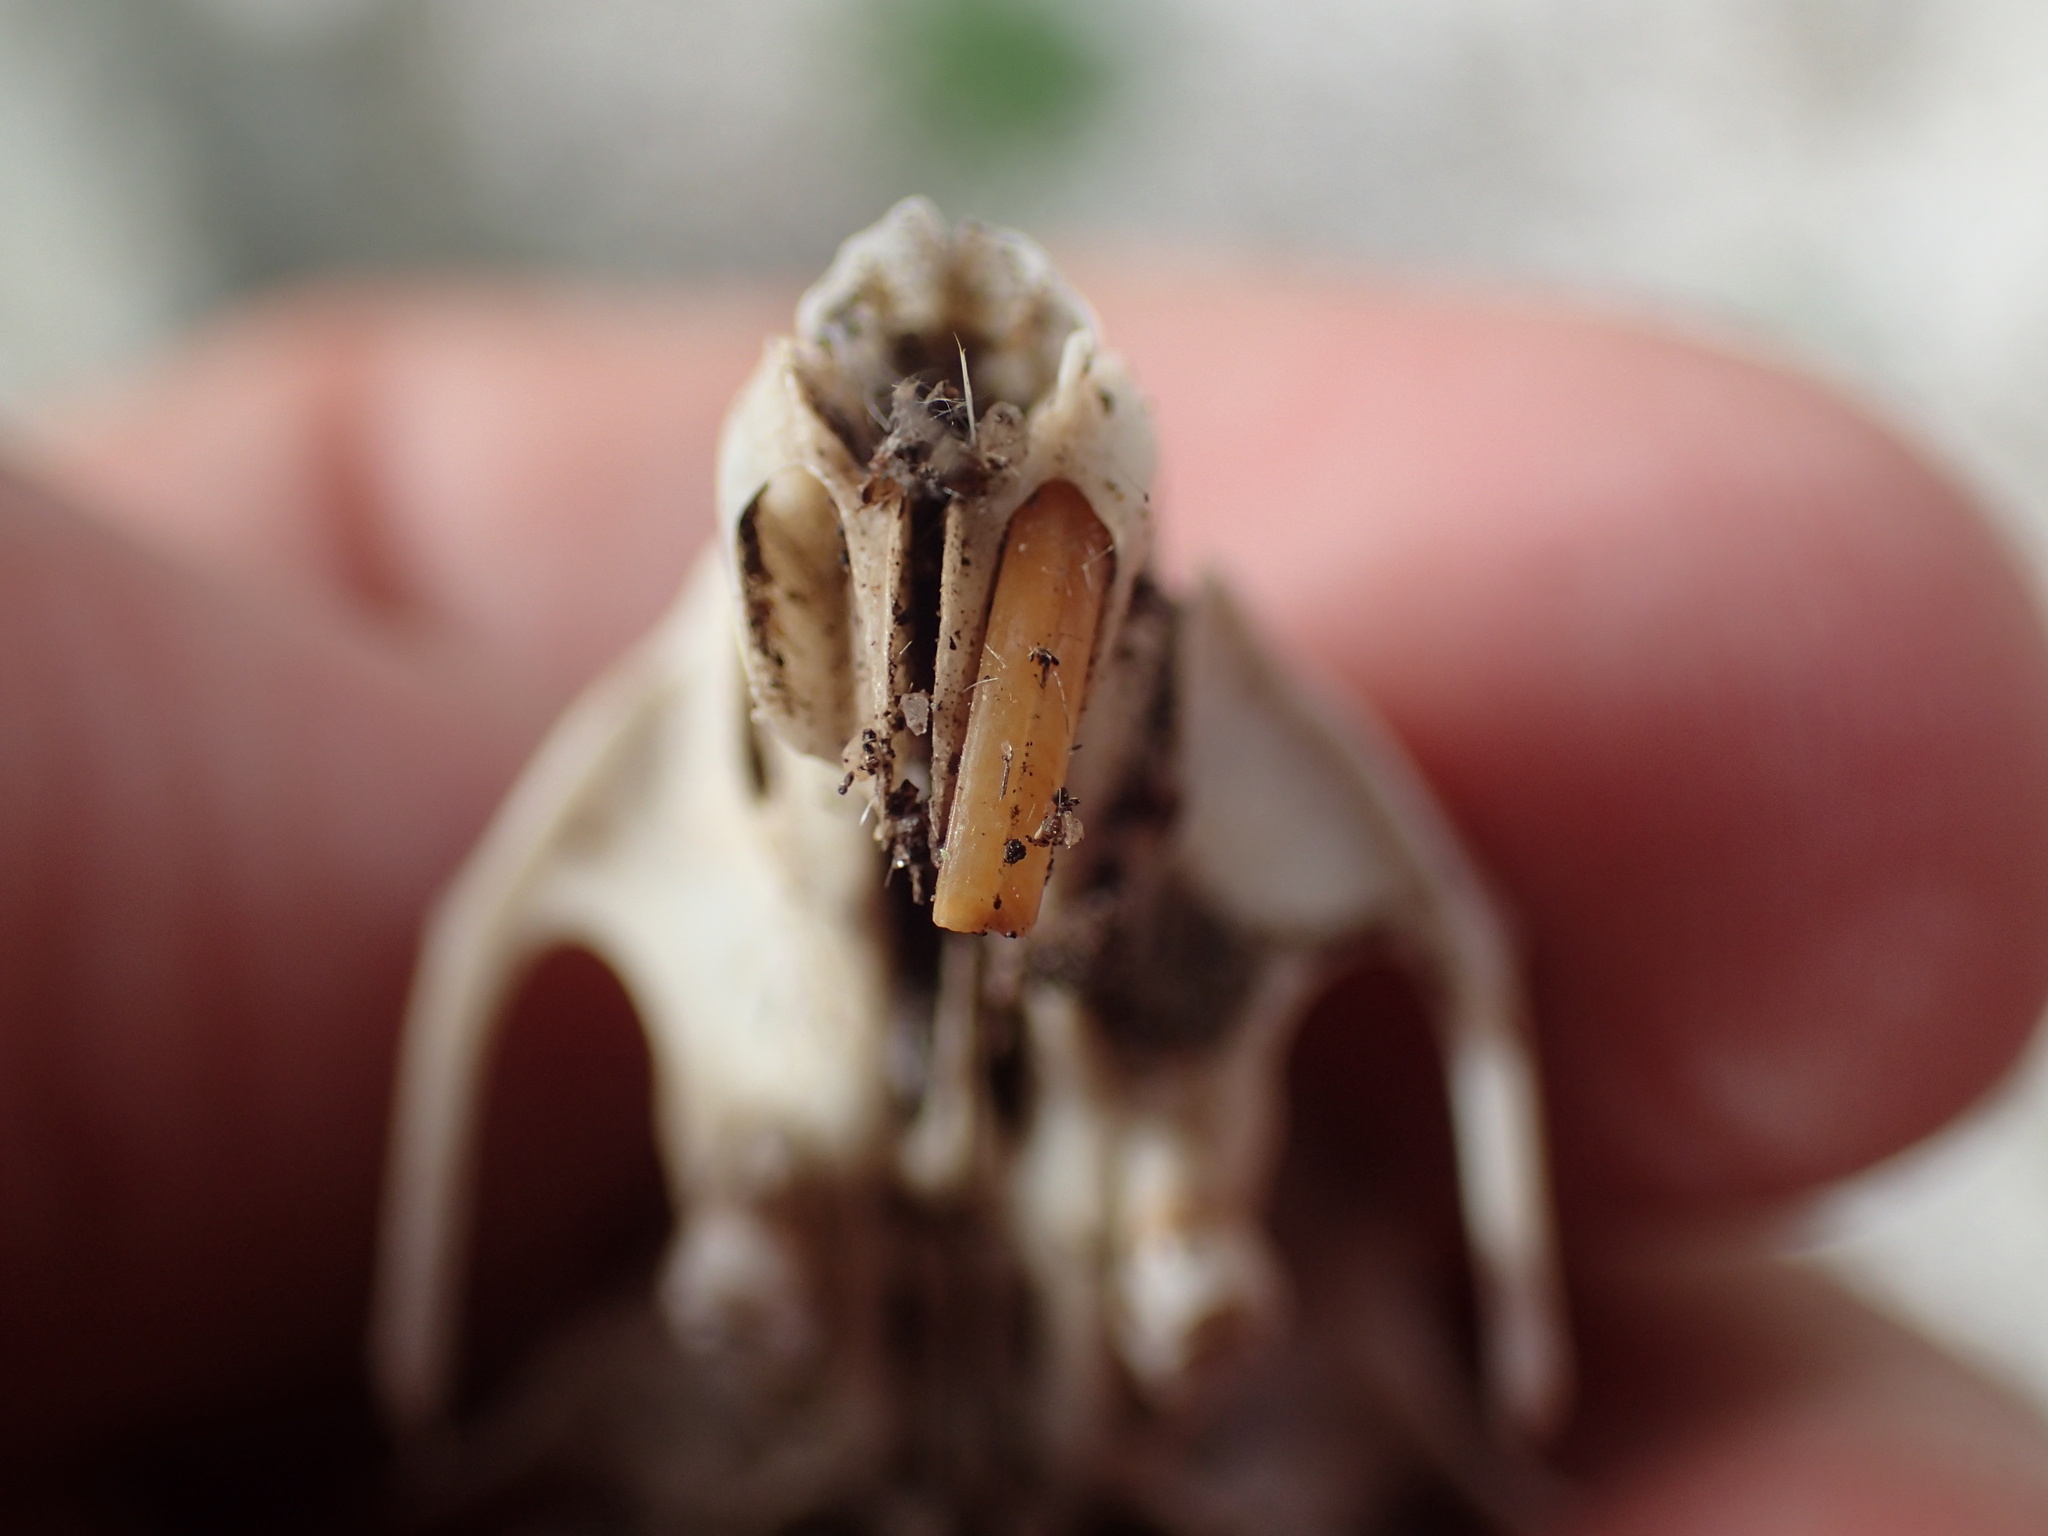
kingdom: Animalia
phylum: Chordata
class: Mammalia
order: Rodentia
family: Muridae
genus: Gerbilliscus
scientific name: Gerbilliscus afer
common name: Cape gerbil
